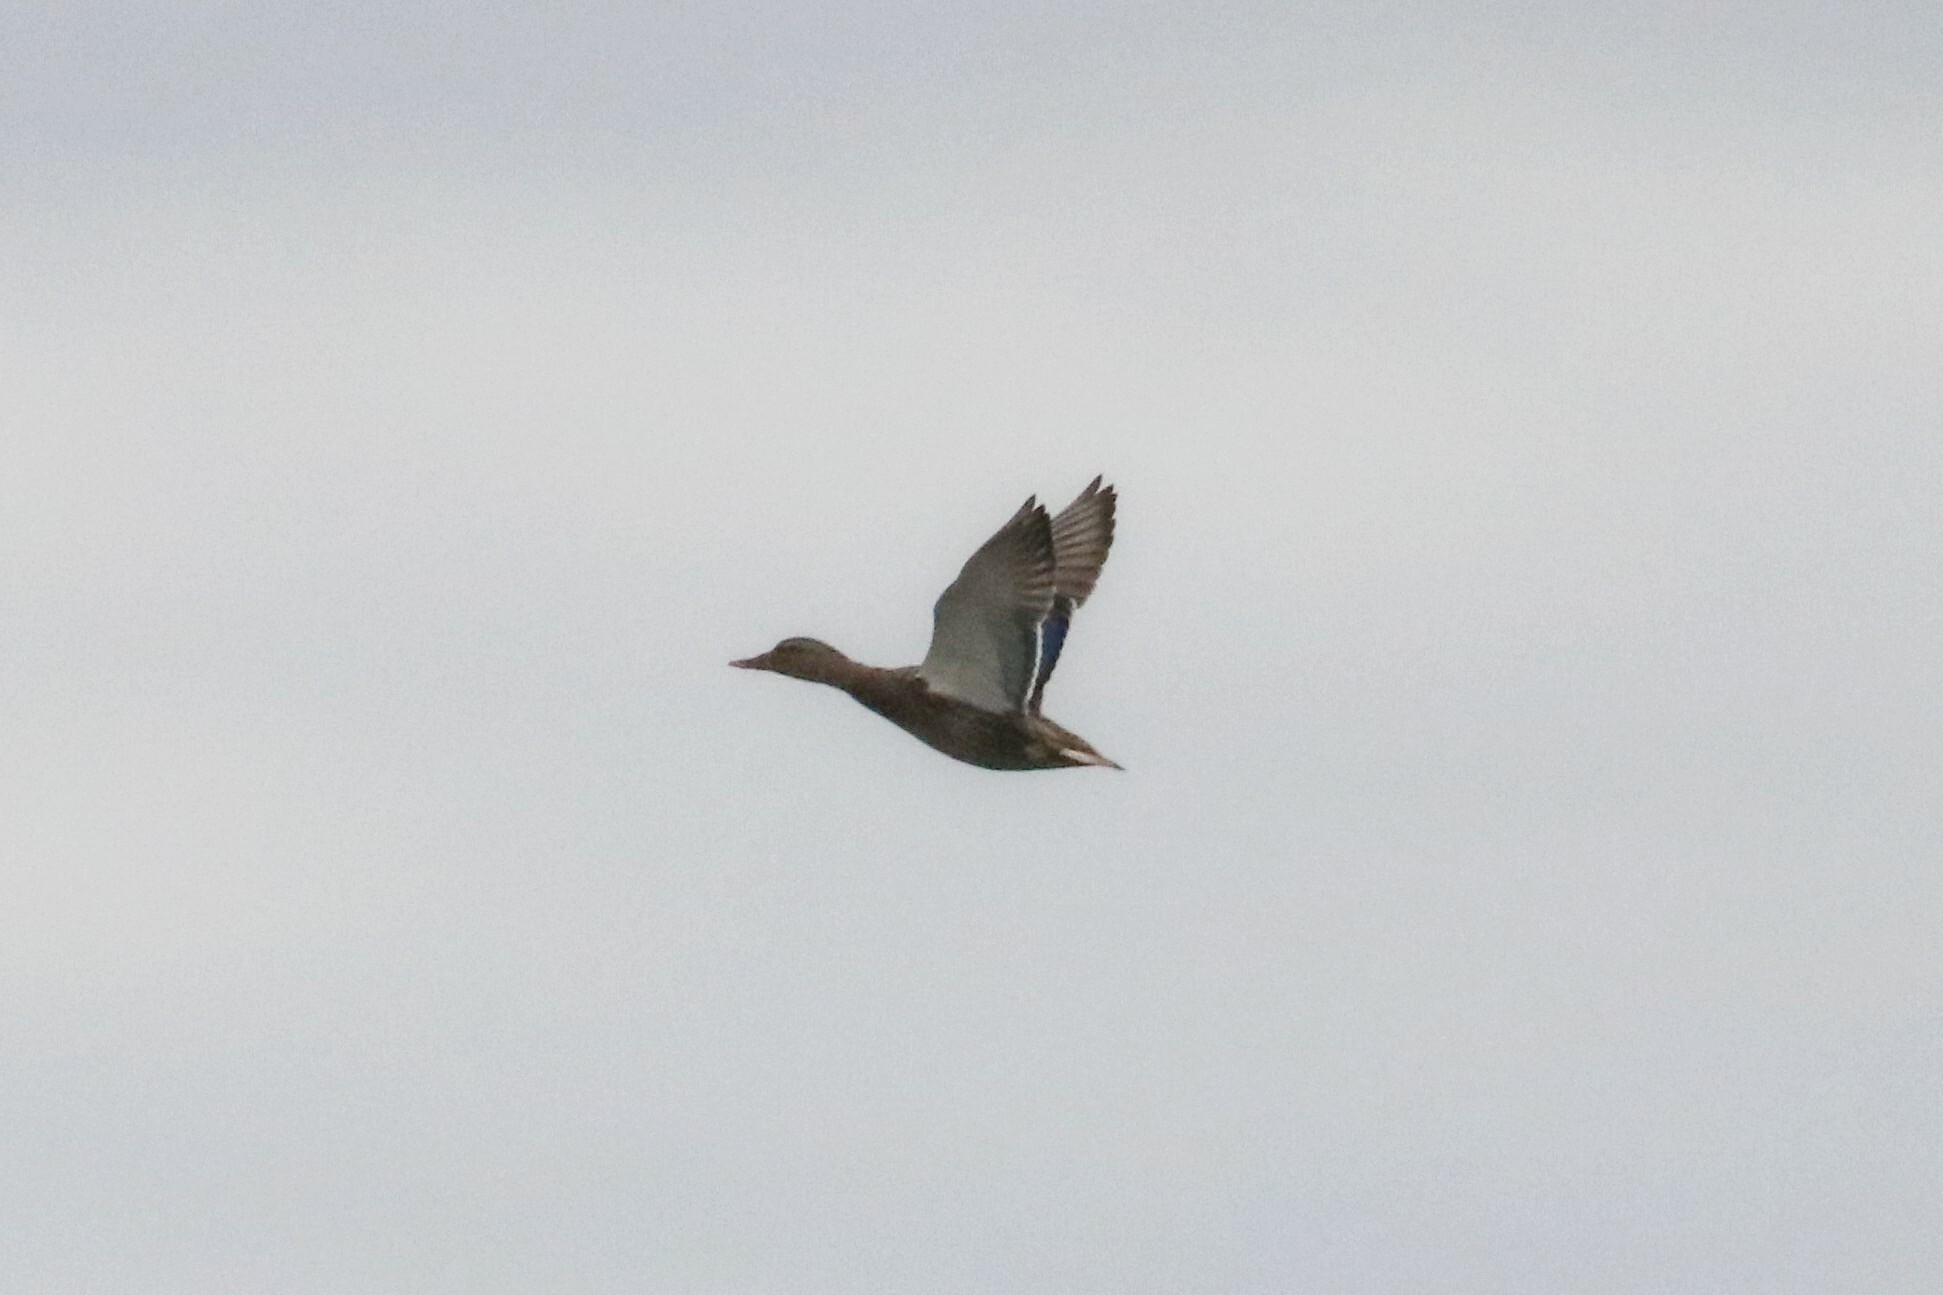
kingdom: Animalia
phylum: Chordata
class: Aves
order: Anseriformes
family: Anatidae
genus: Anas
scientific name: Anas platyrhynchos
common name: Mallard
